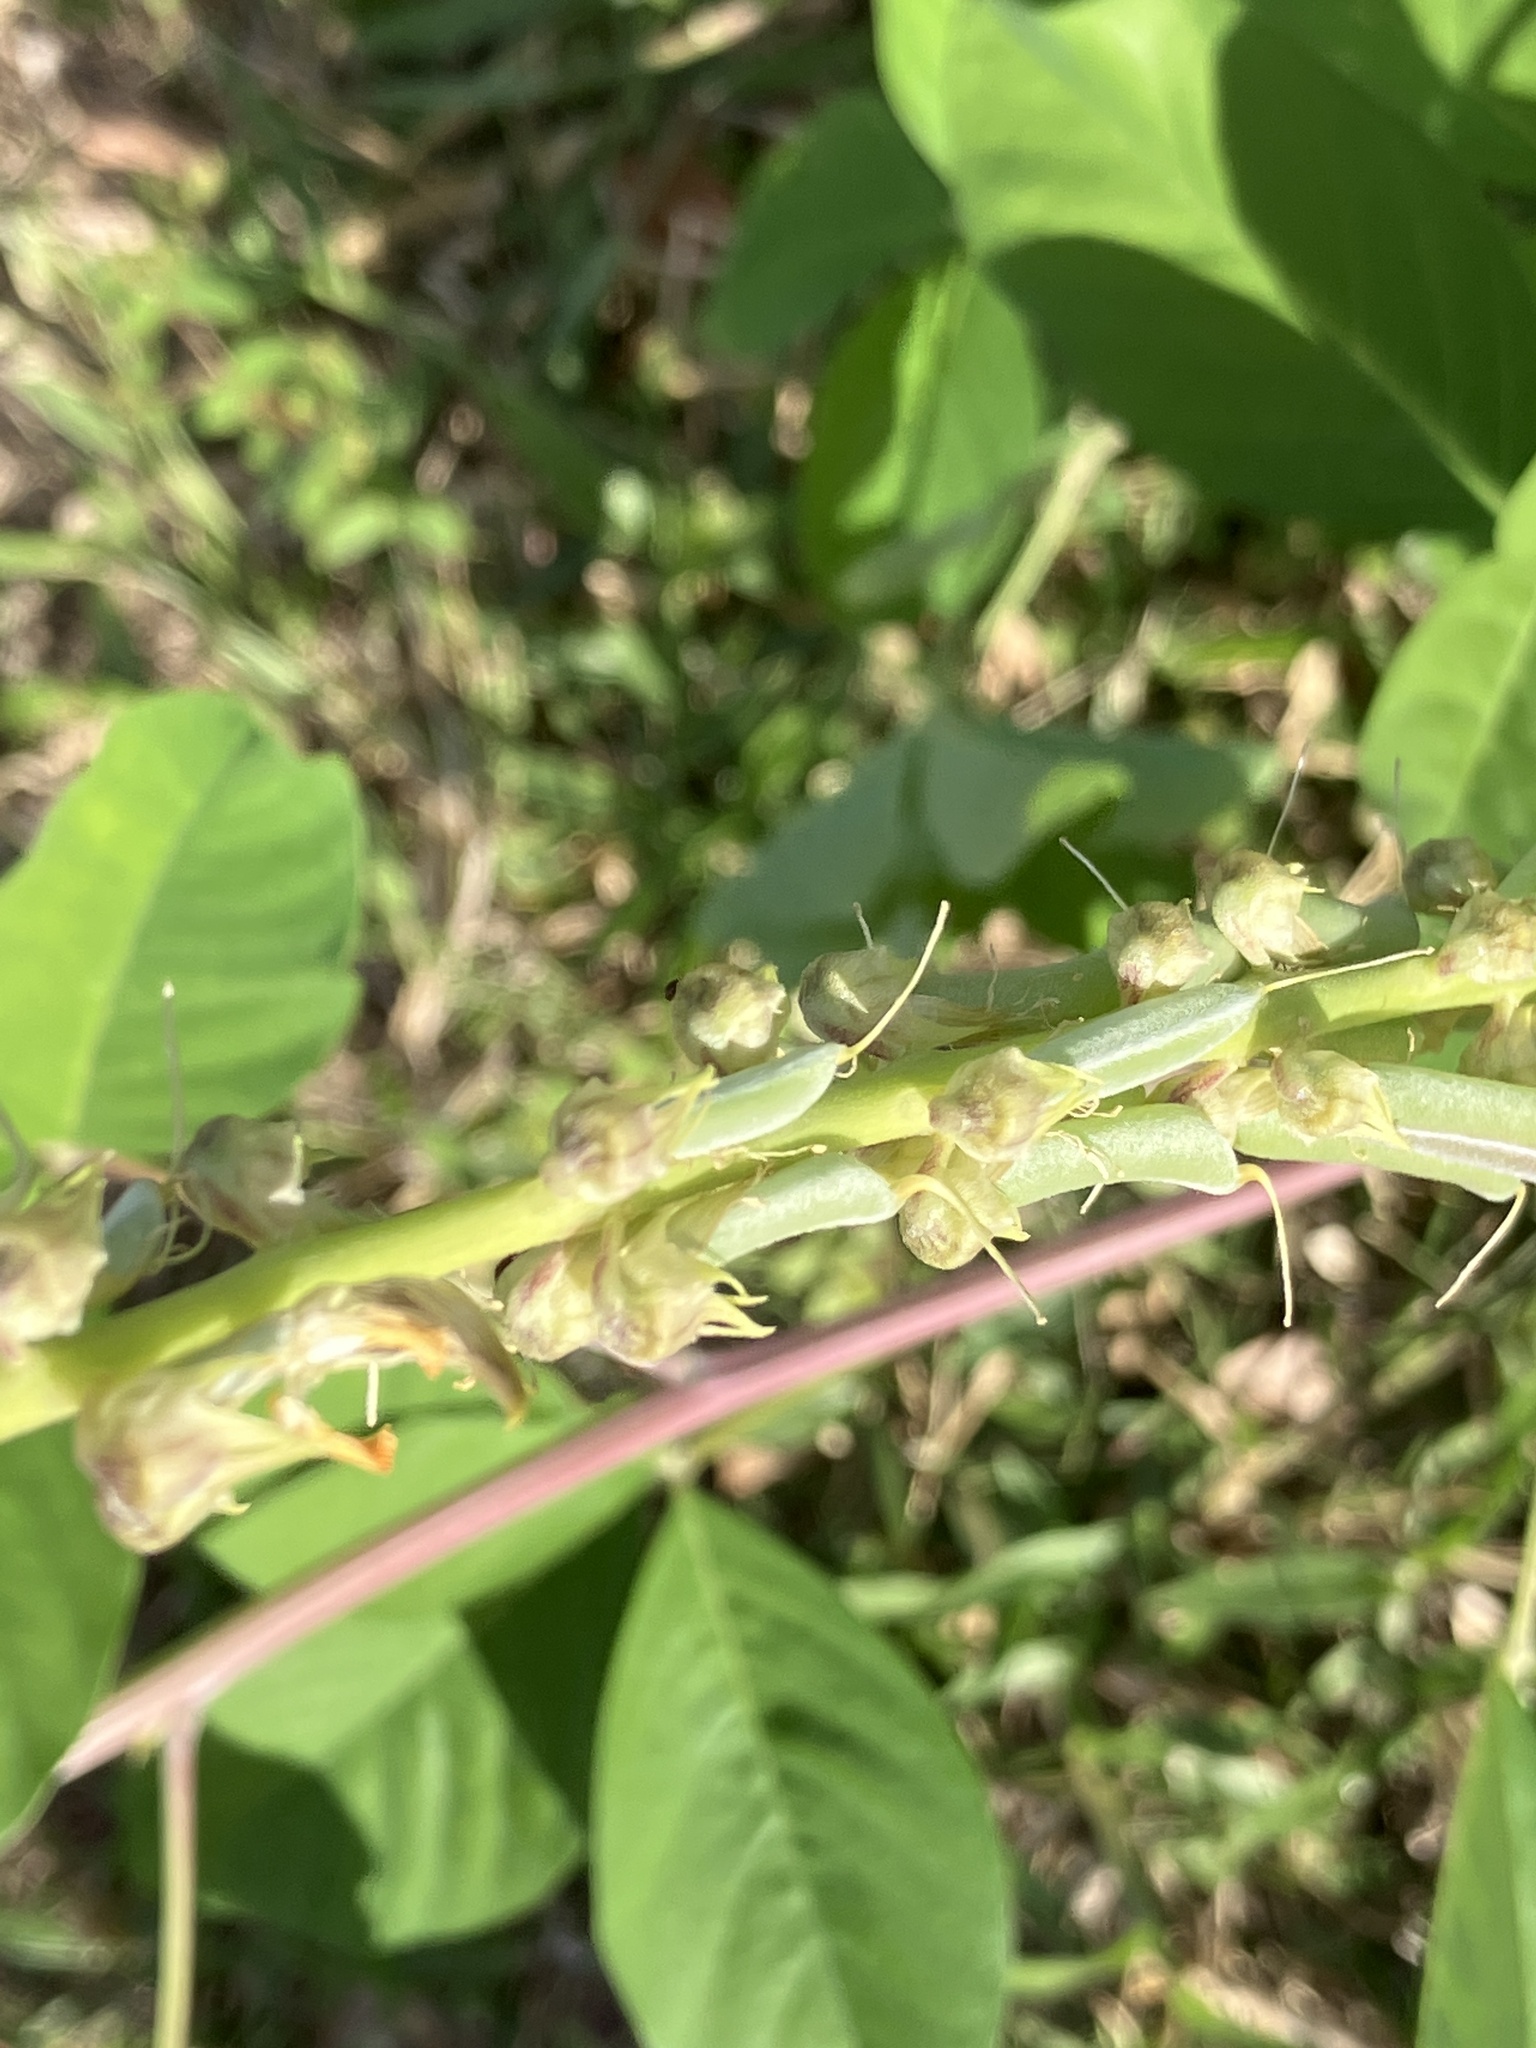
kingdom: Plantae
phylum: Tracheophyta
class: Magnoliopsida
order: Fabales
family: Fabaceae
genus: Crotalaria
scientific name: Crotalaria pallida
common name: Smooth rattlebox
